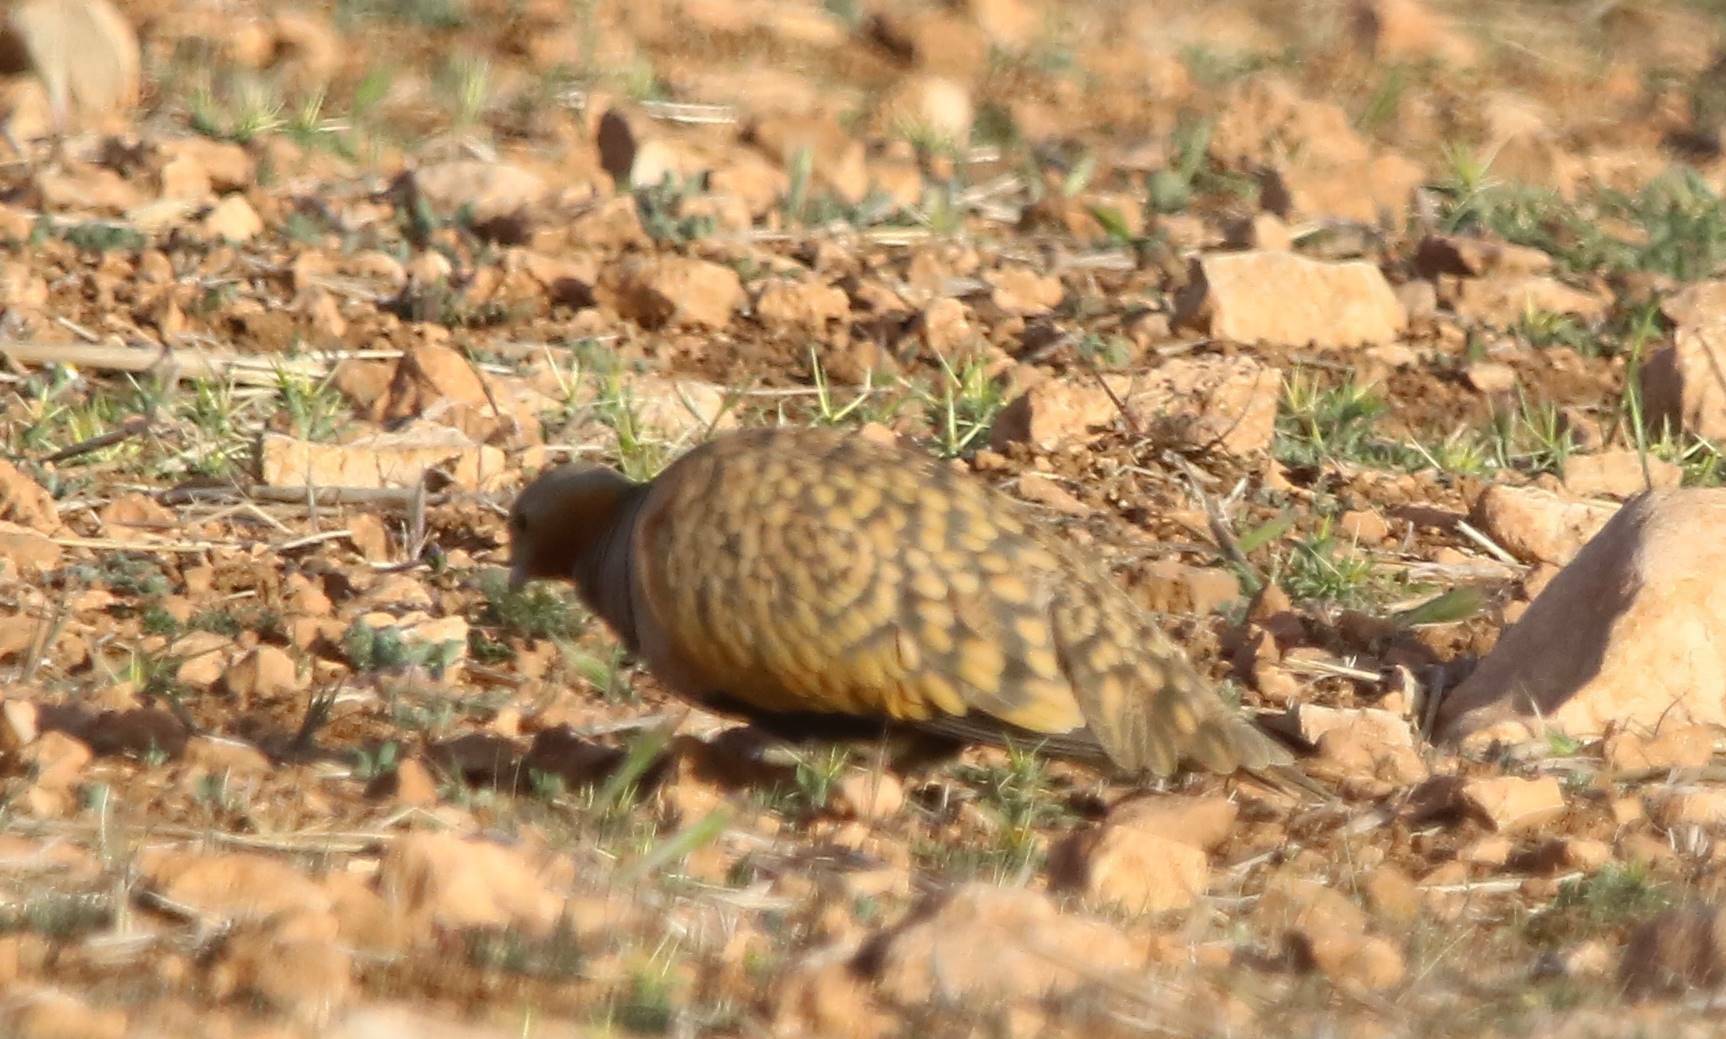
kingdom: Animalia
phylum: Chordata
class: Aves
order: Pteroclidiformes
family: Pteroclididae
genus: Pterocles
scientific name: Pterocles orientalis
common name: Black-bellied sandgrouse
